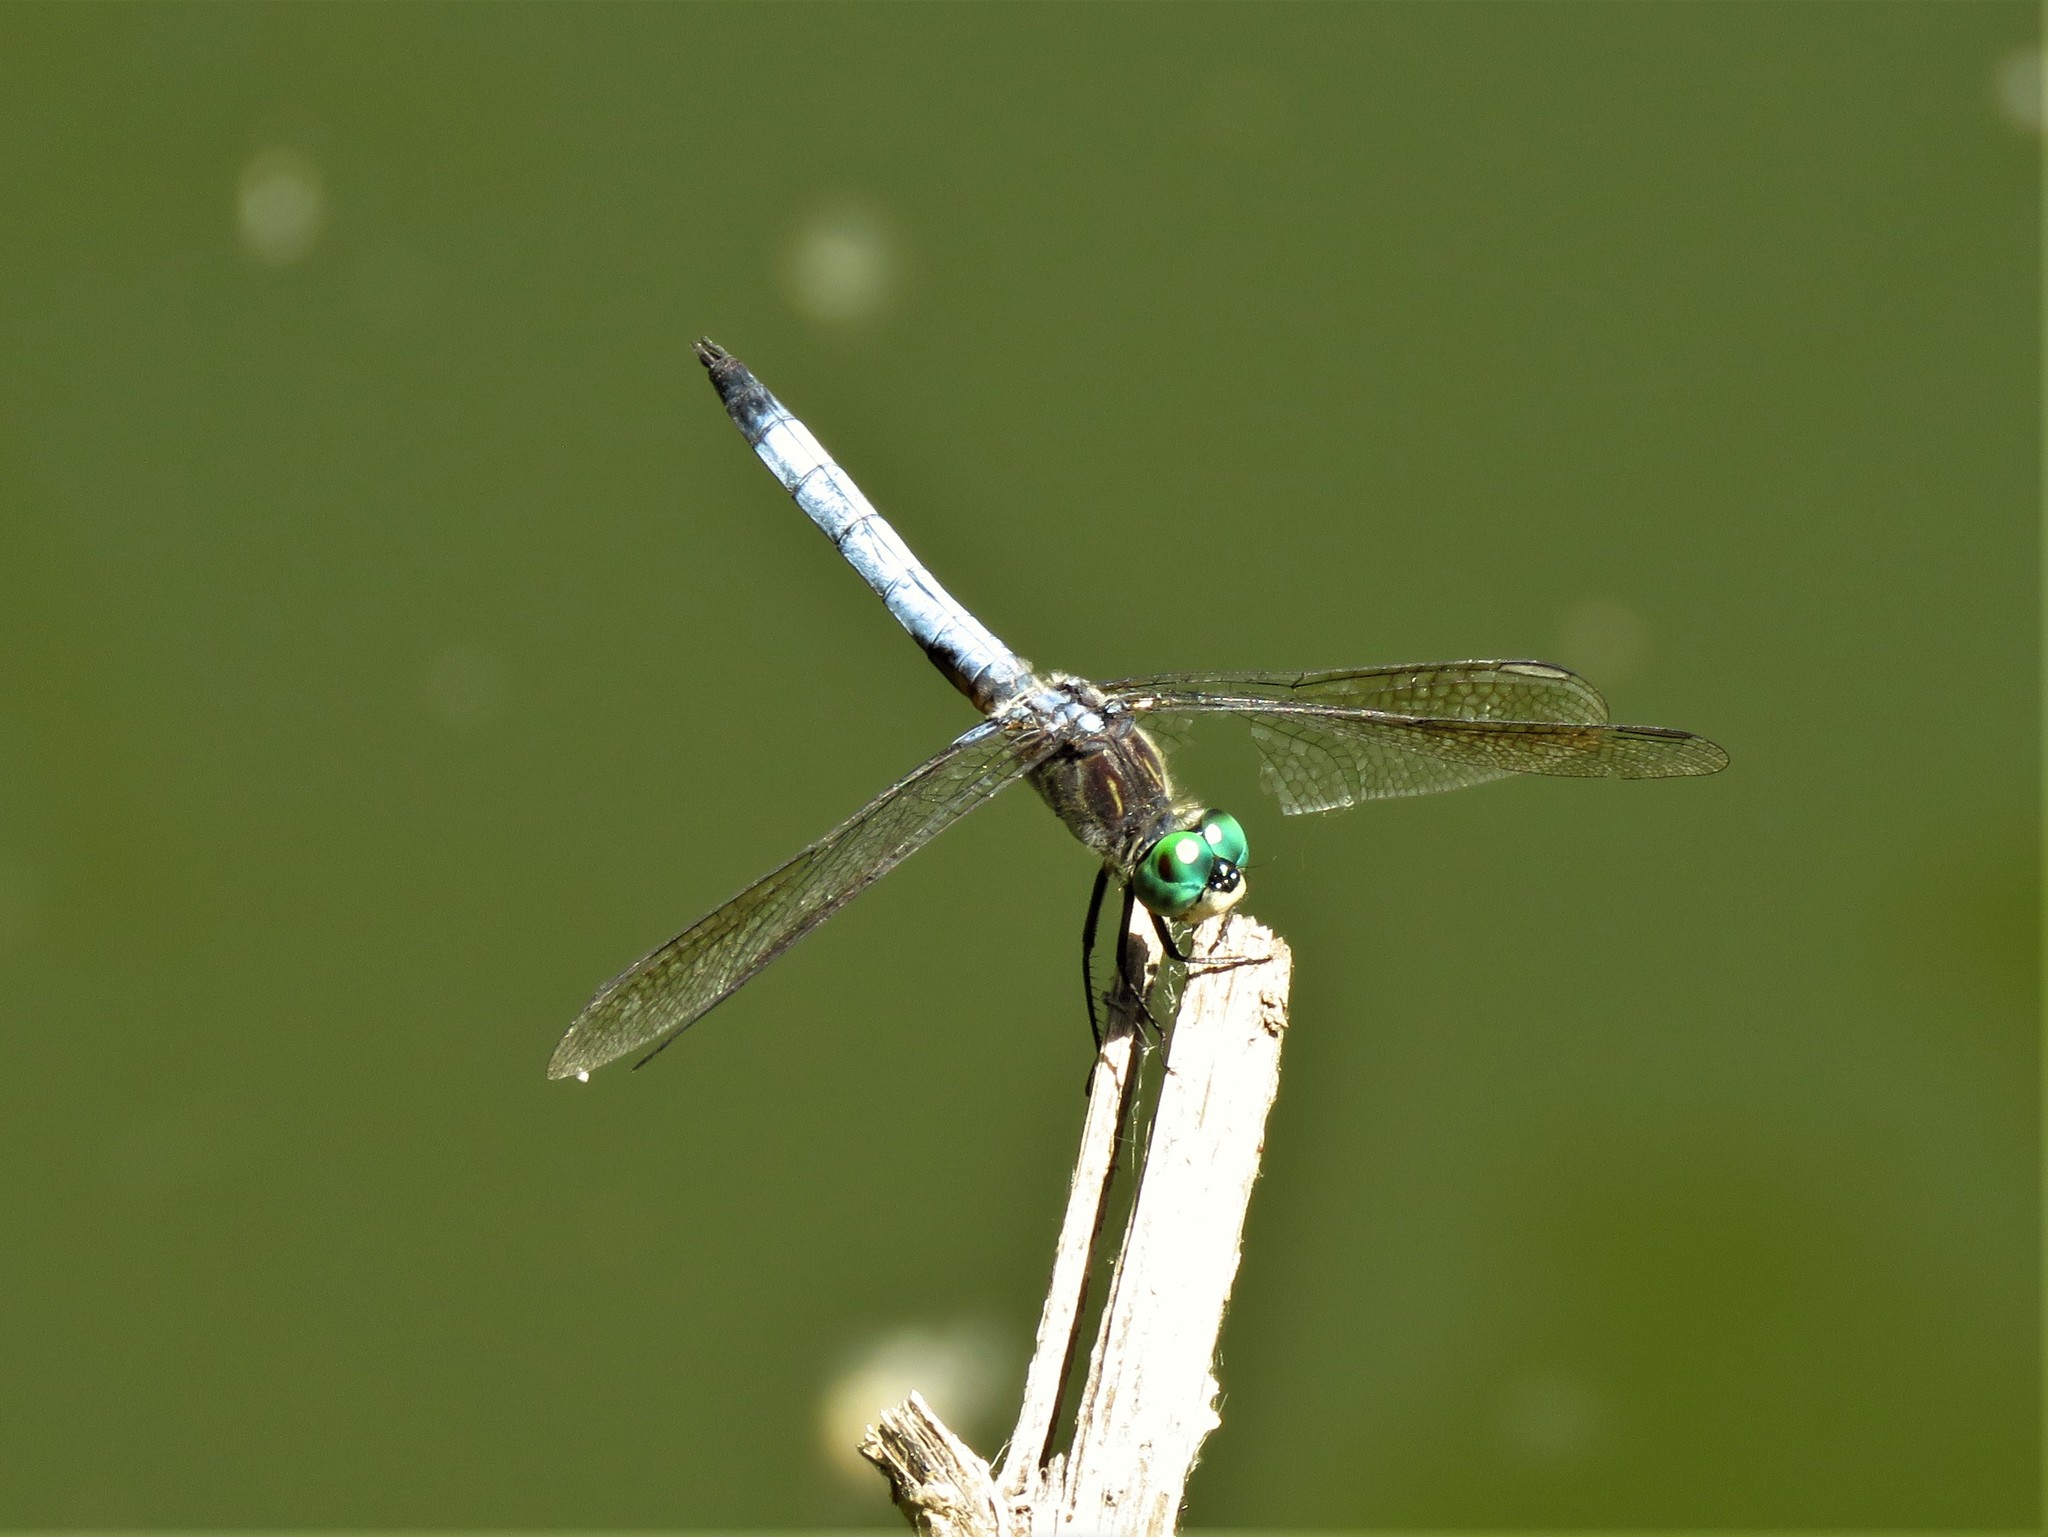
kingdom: Animalia
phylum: Arthropoda
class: Insecta
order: Odonata
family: Libellulidae
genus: Pachydiplax
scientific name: Pachydiplax longipennis
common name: Blue dasher
